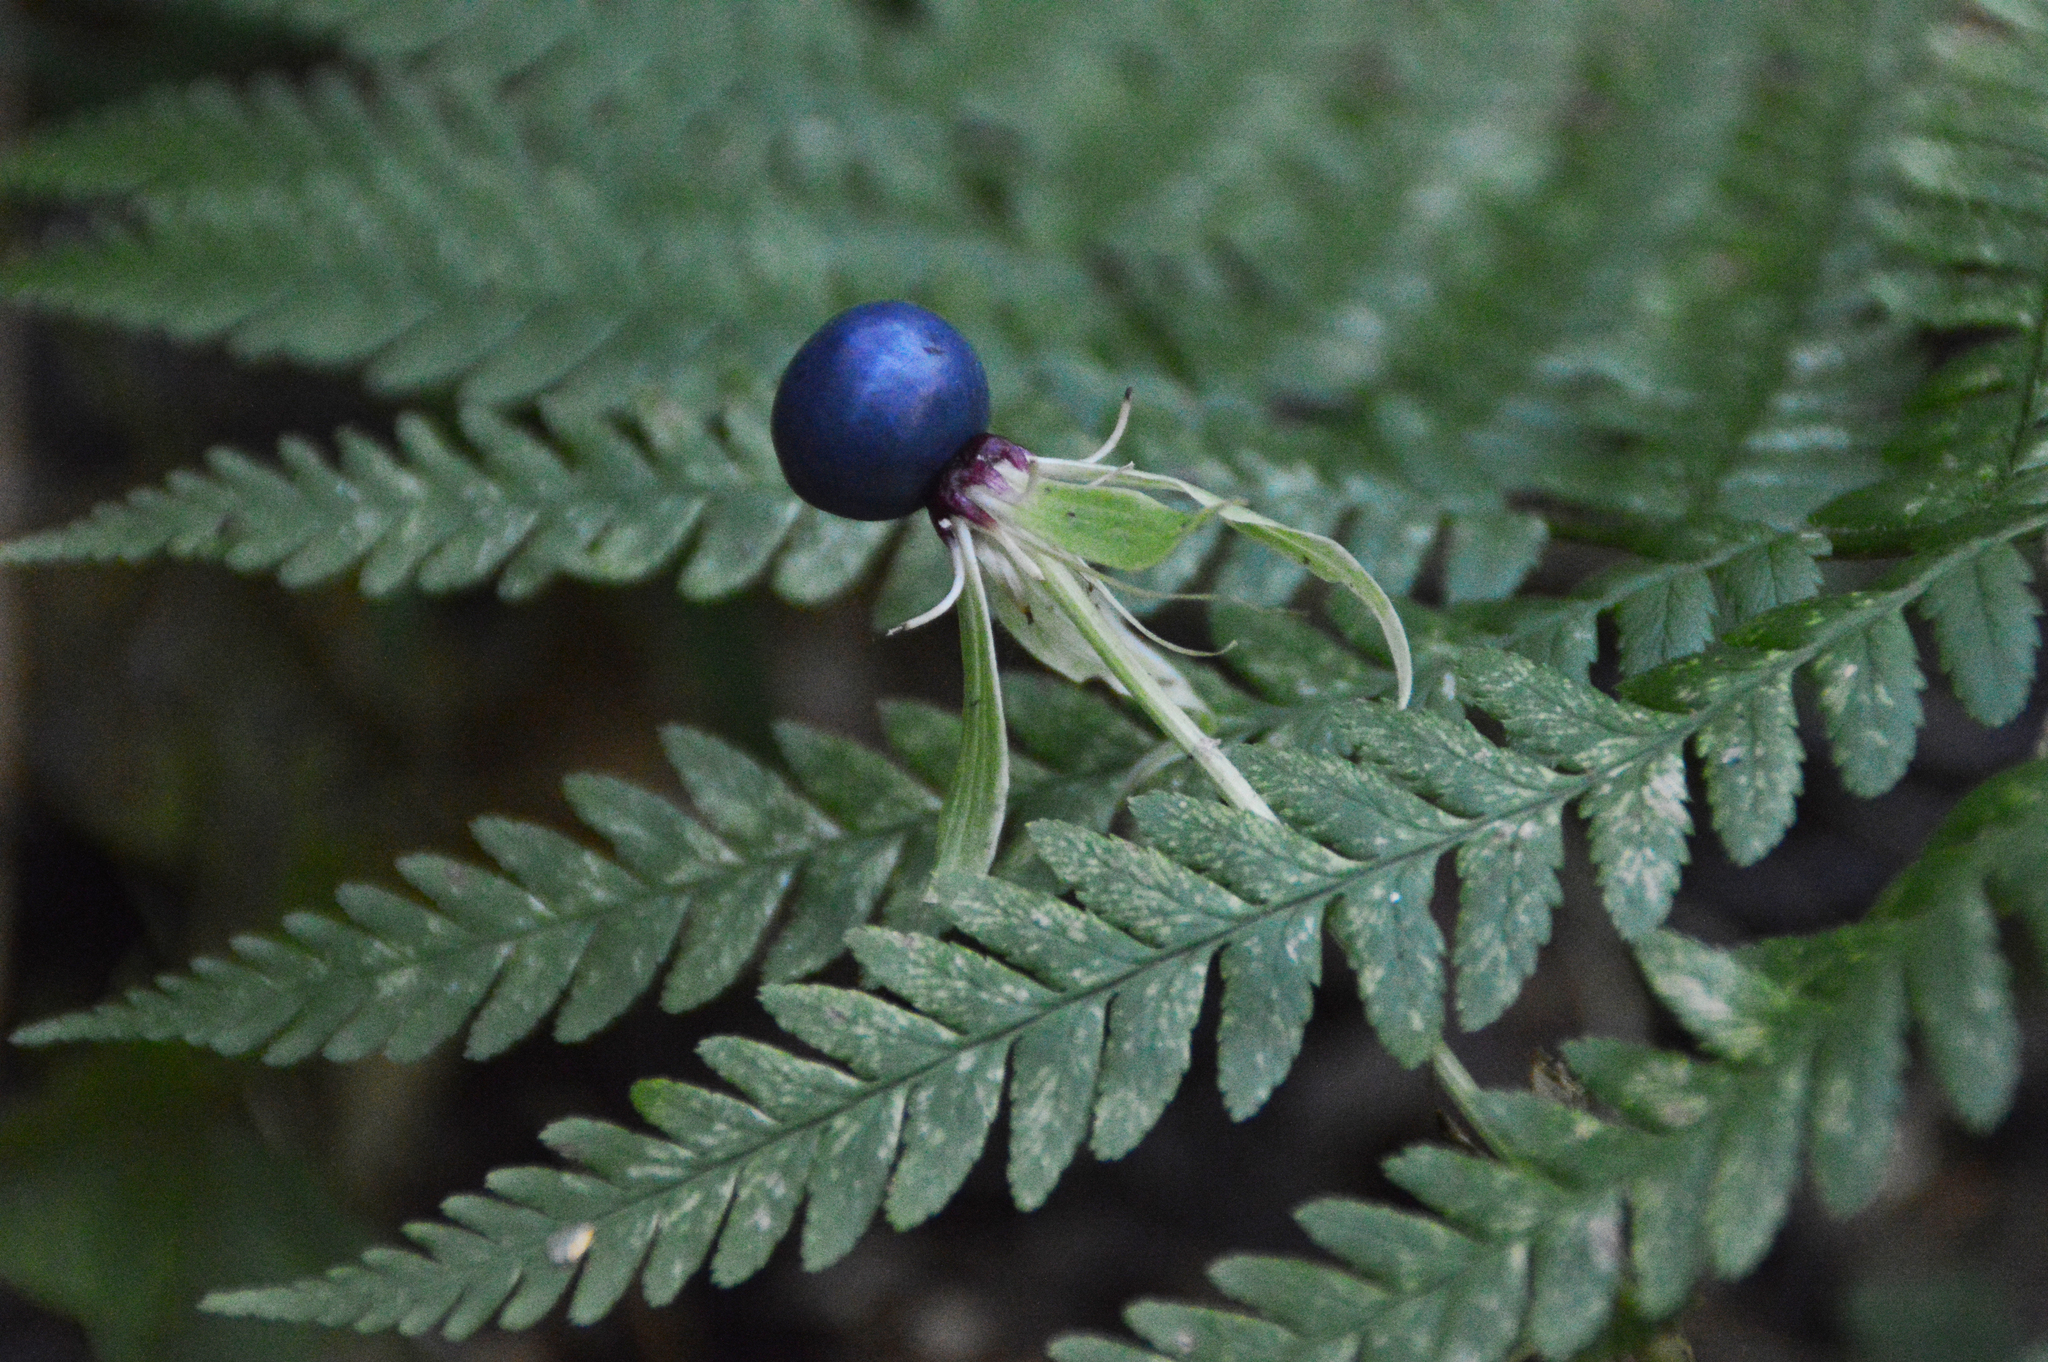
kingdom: Plantae
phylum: Tracheophyta
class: Liliopsida
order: Liliales
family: Melanthiaceae
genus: Paris
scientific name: Paris quadrifolia
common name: Herb-paris
